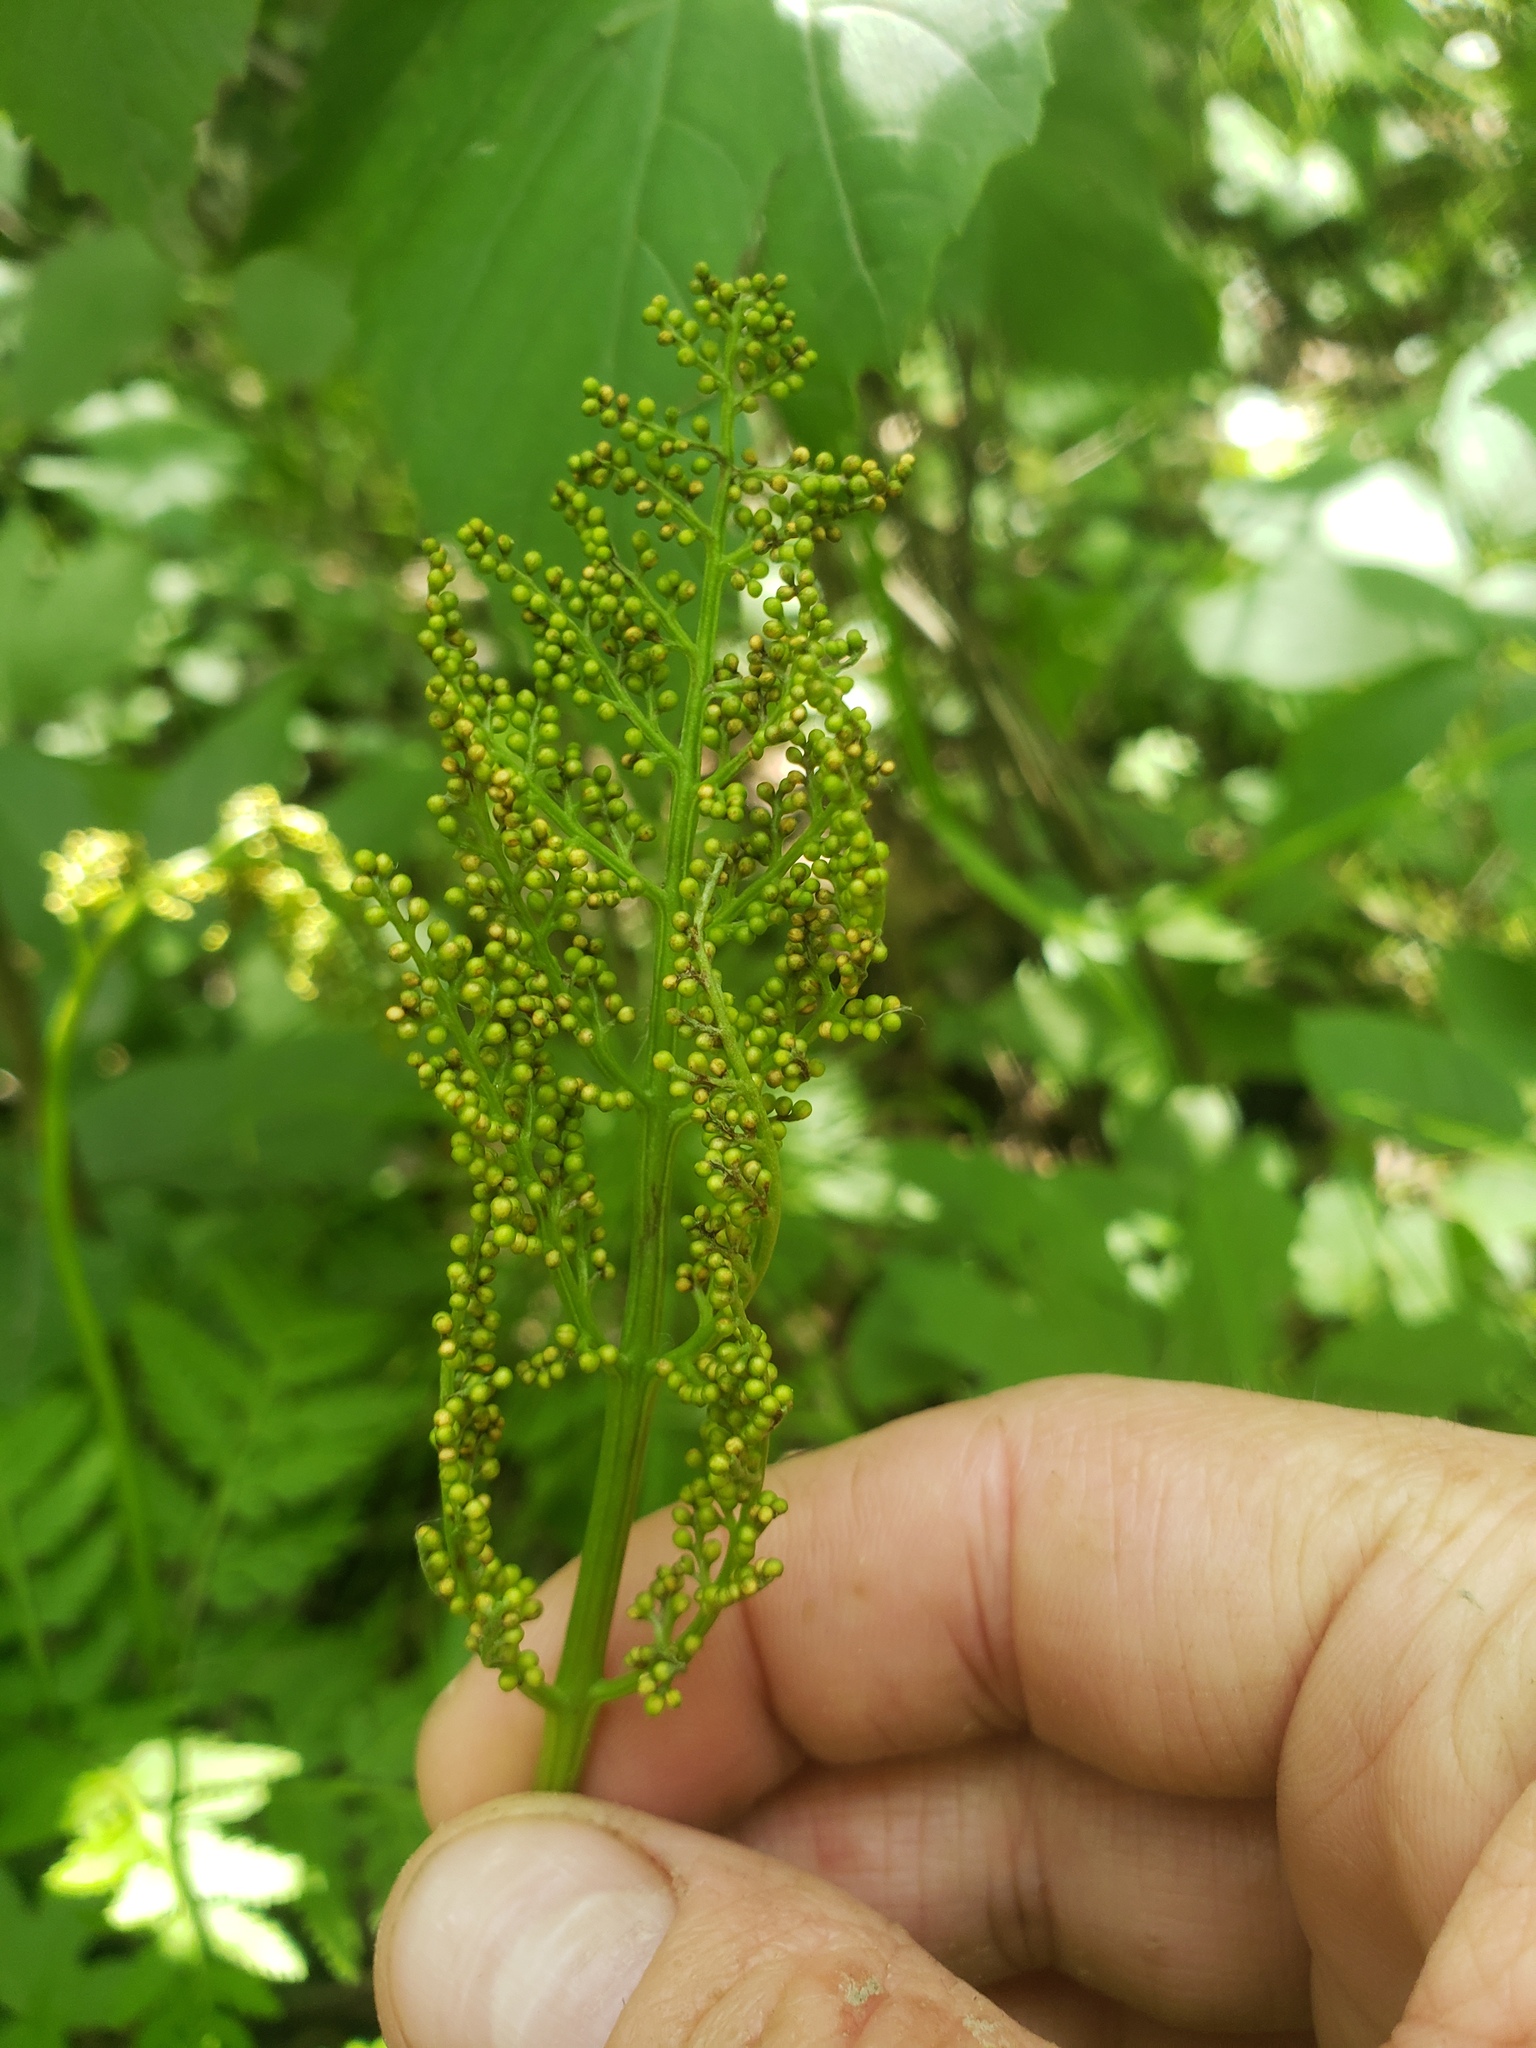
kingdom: Plantae
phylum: Tracheophyta
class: Polypodiopsida
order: Ophioglossales
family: Ophioglossaceae
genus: Botrypus
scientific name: Botrypus virginianus
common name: Common grapefern
